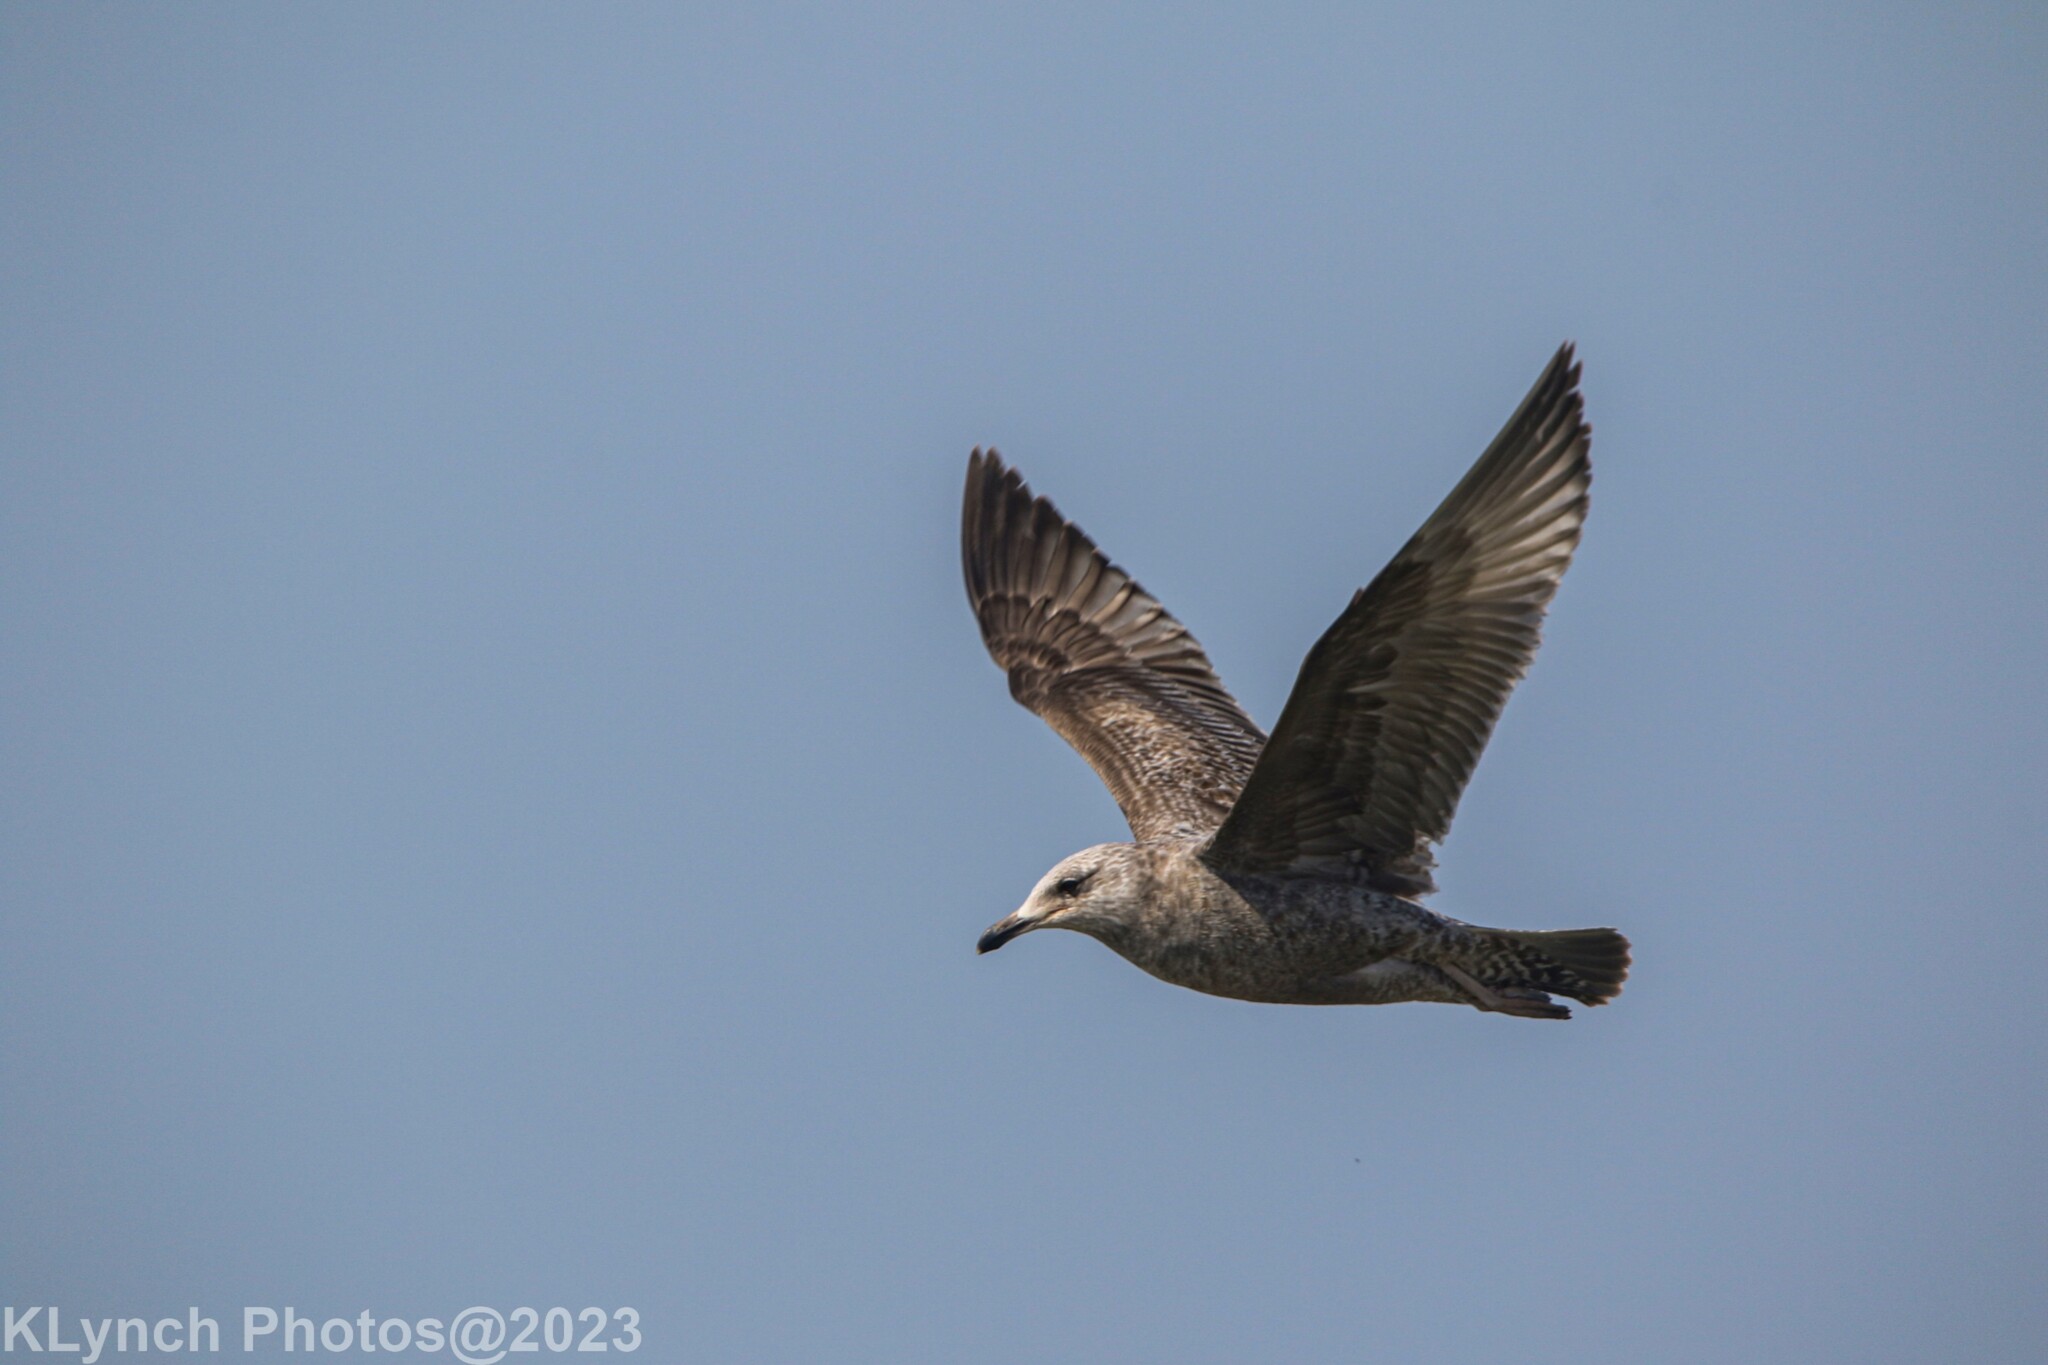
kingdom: Animalia
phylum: Chordata
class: Aves
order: Charadriiformes
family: Laridae
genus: Larus
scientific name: Larus argentatus
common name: Herring gull
